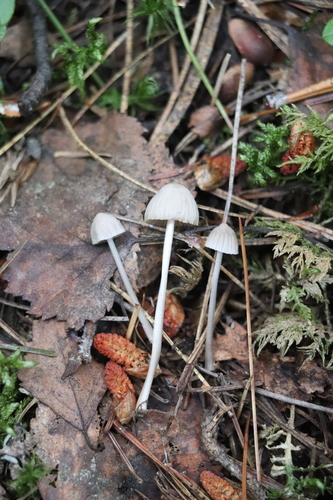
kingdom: Fungi
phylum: Basidiomycota
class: Agaricomycetes
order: Agaricales
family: Mycenaceae
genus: Mycena
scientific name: Mycena
